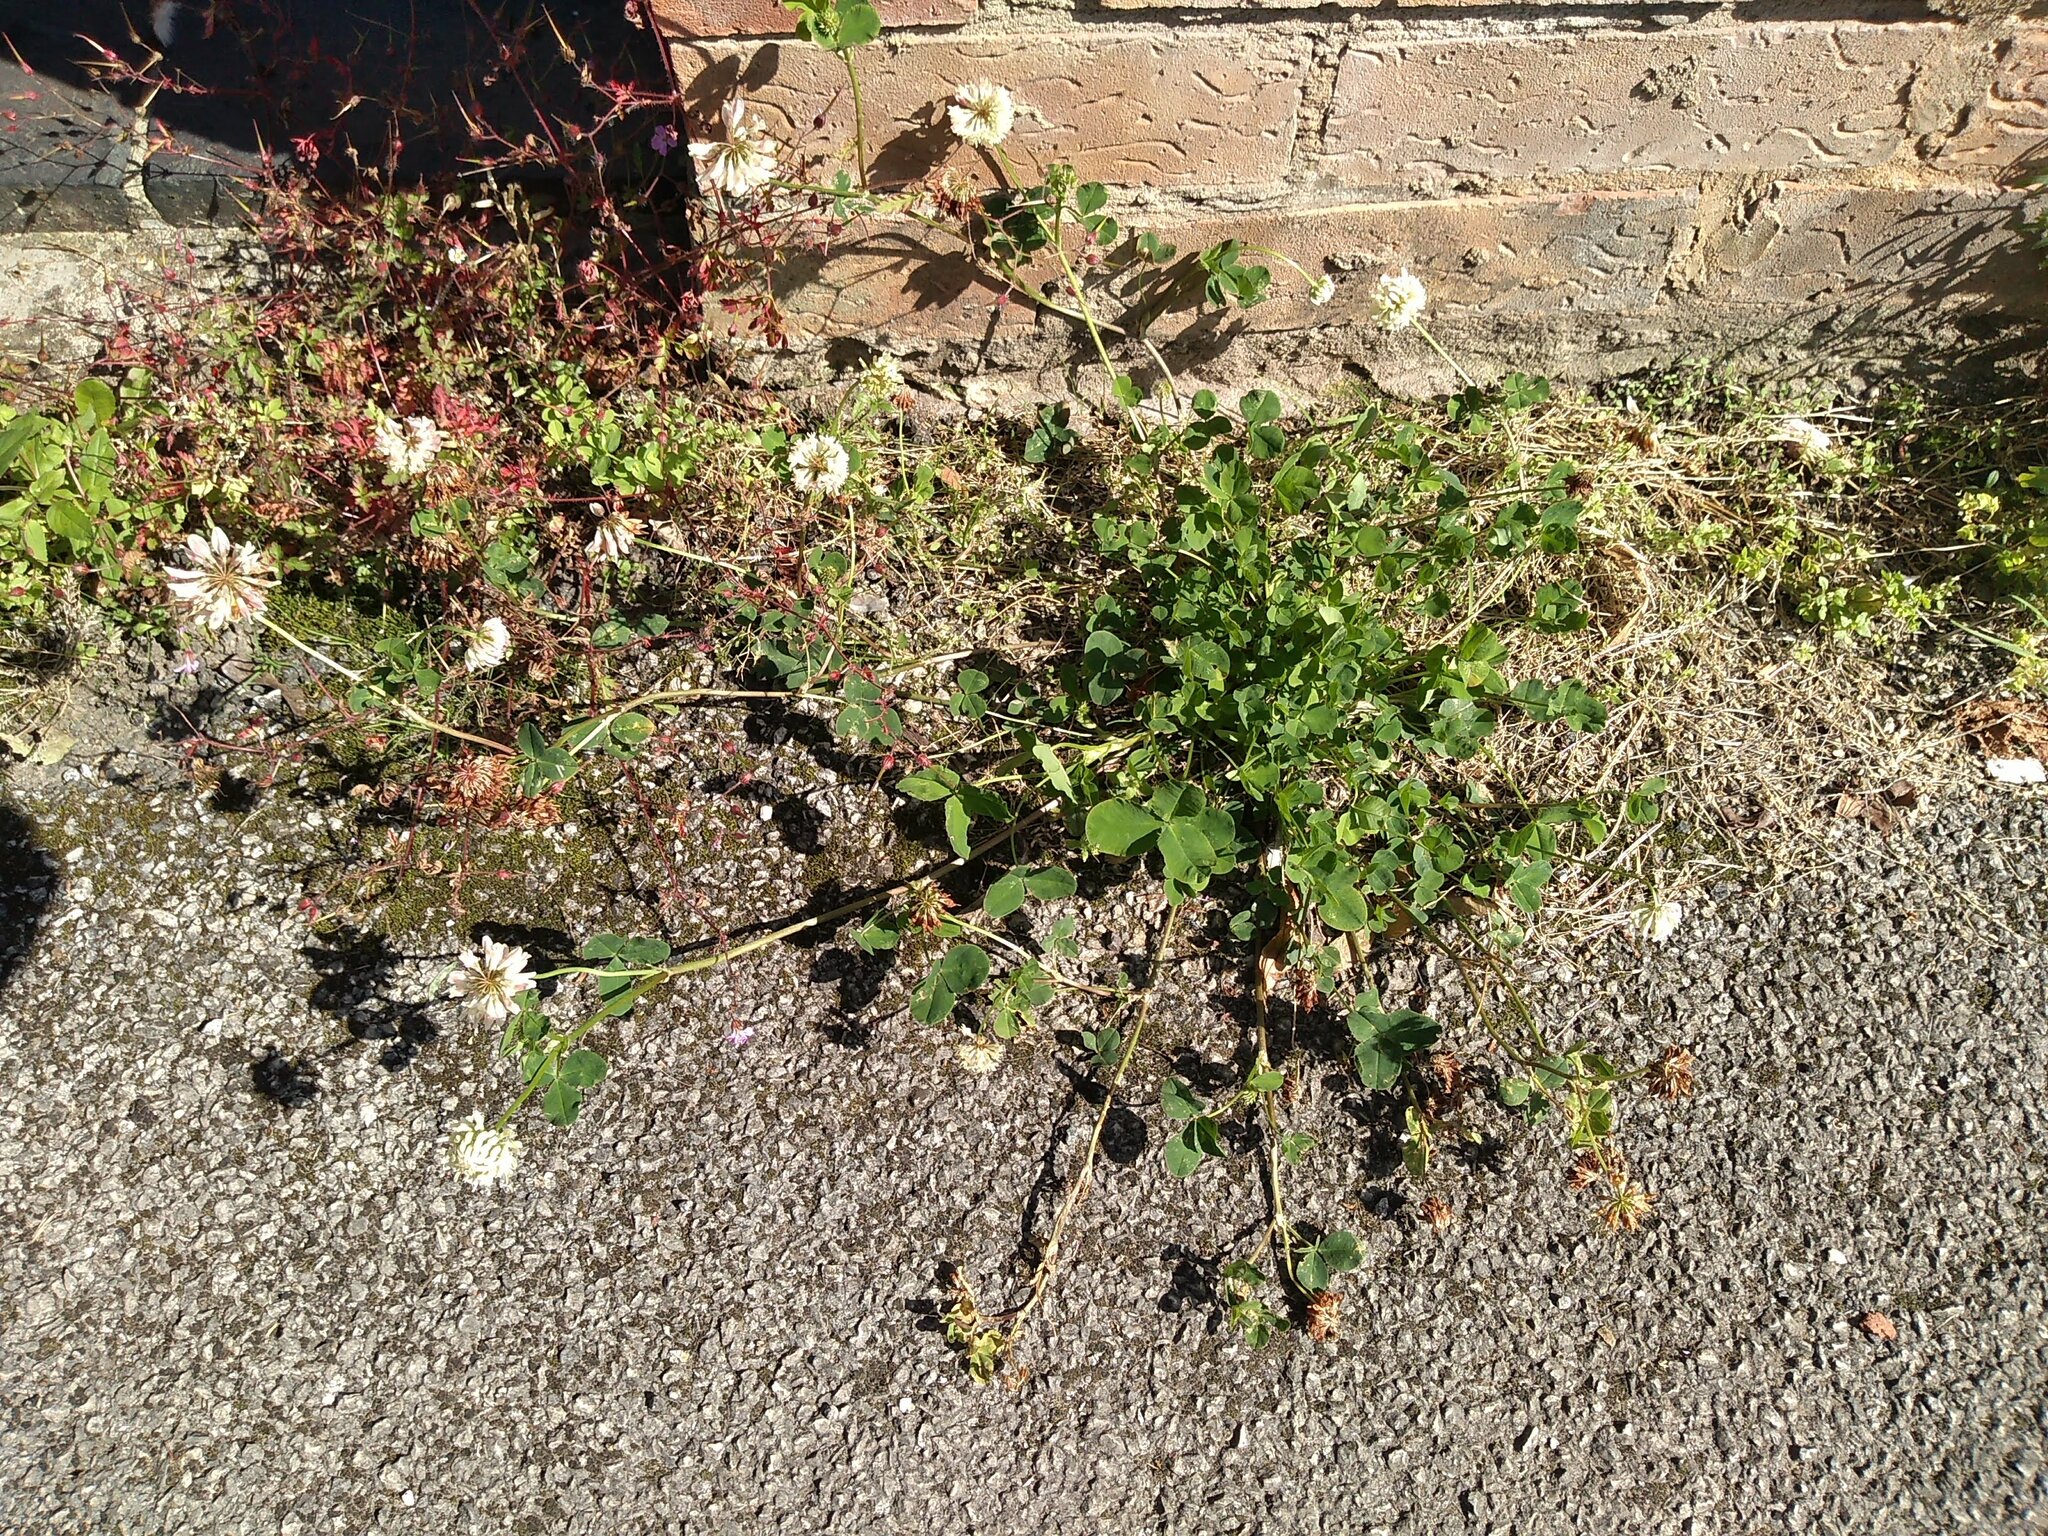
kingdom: Plantae
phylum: Tracheophyta
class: Magnoliopsida
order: Fabales
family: Fabaceae
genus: Trifolium
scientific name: Trifolium hybridum
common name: Alsike clover
